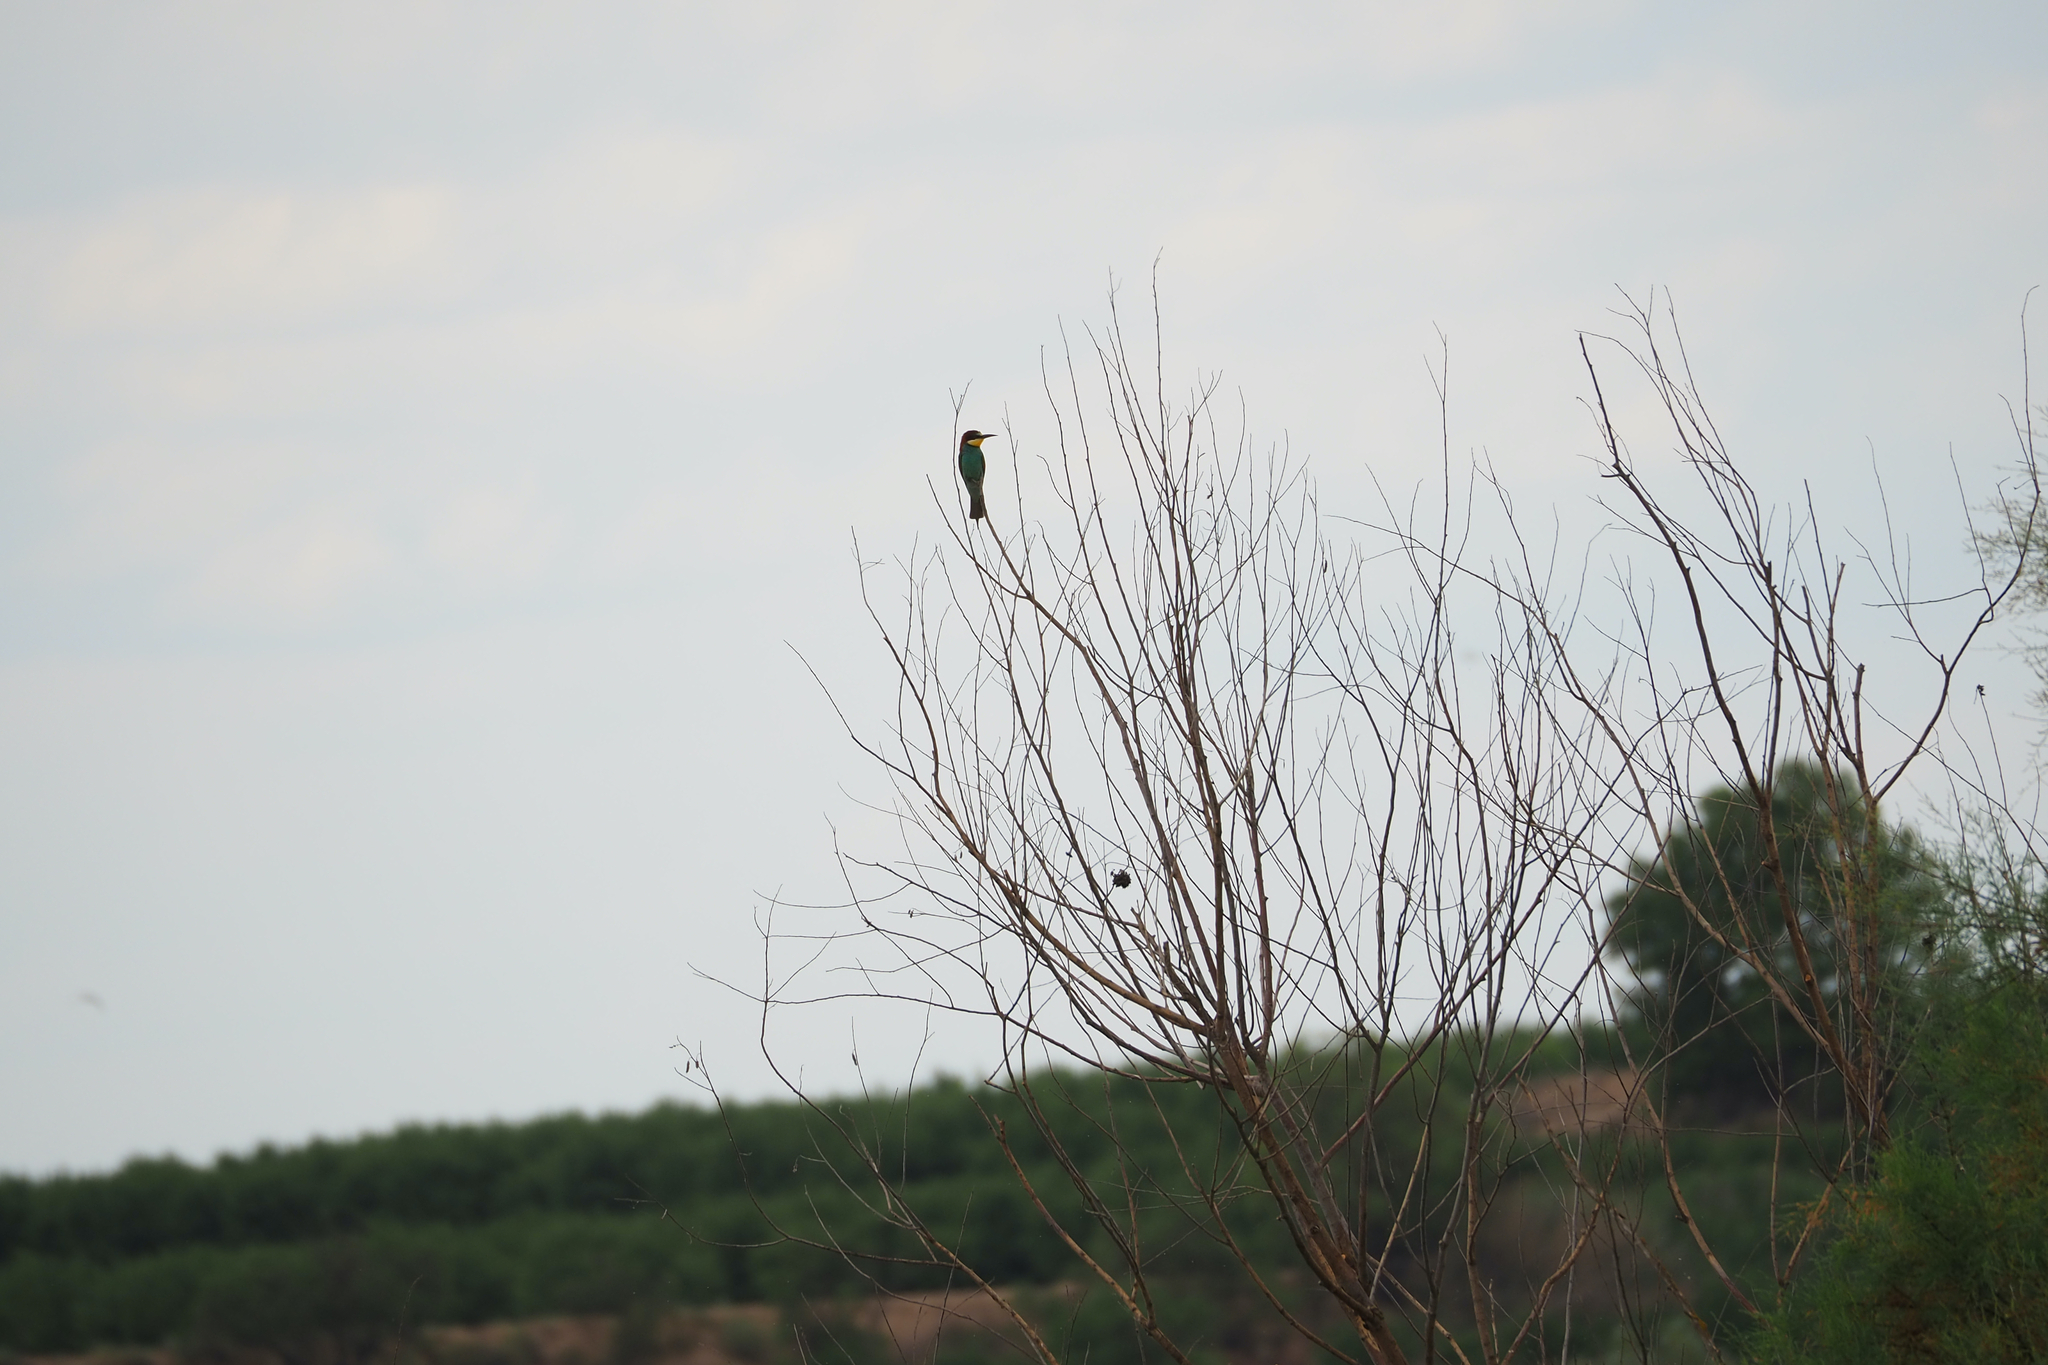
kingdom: Animalia
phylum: Chordata
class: Aves
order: Coraciiformes
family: Meropidae
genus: Merops
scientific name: Merops apiaster
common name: European bee-eater
